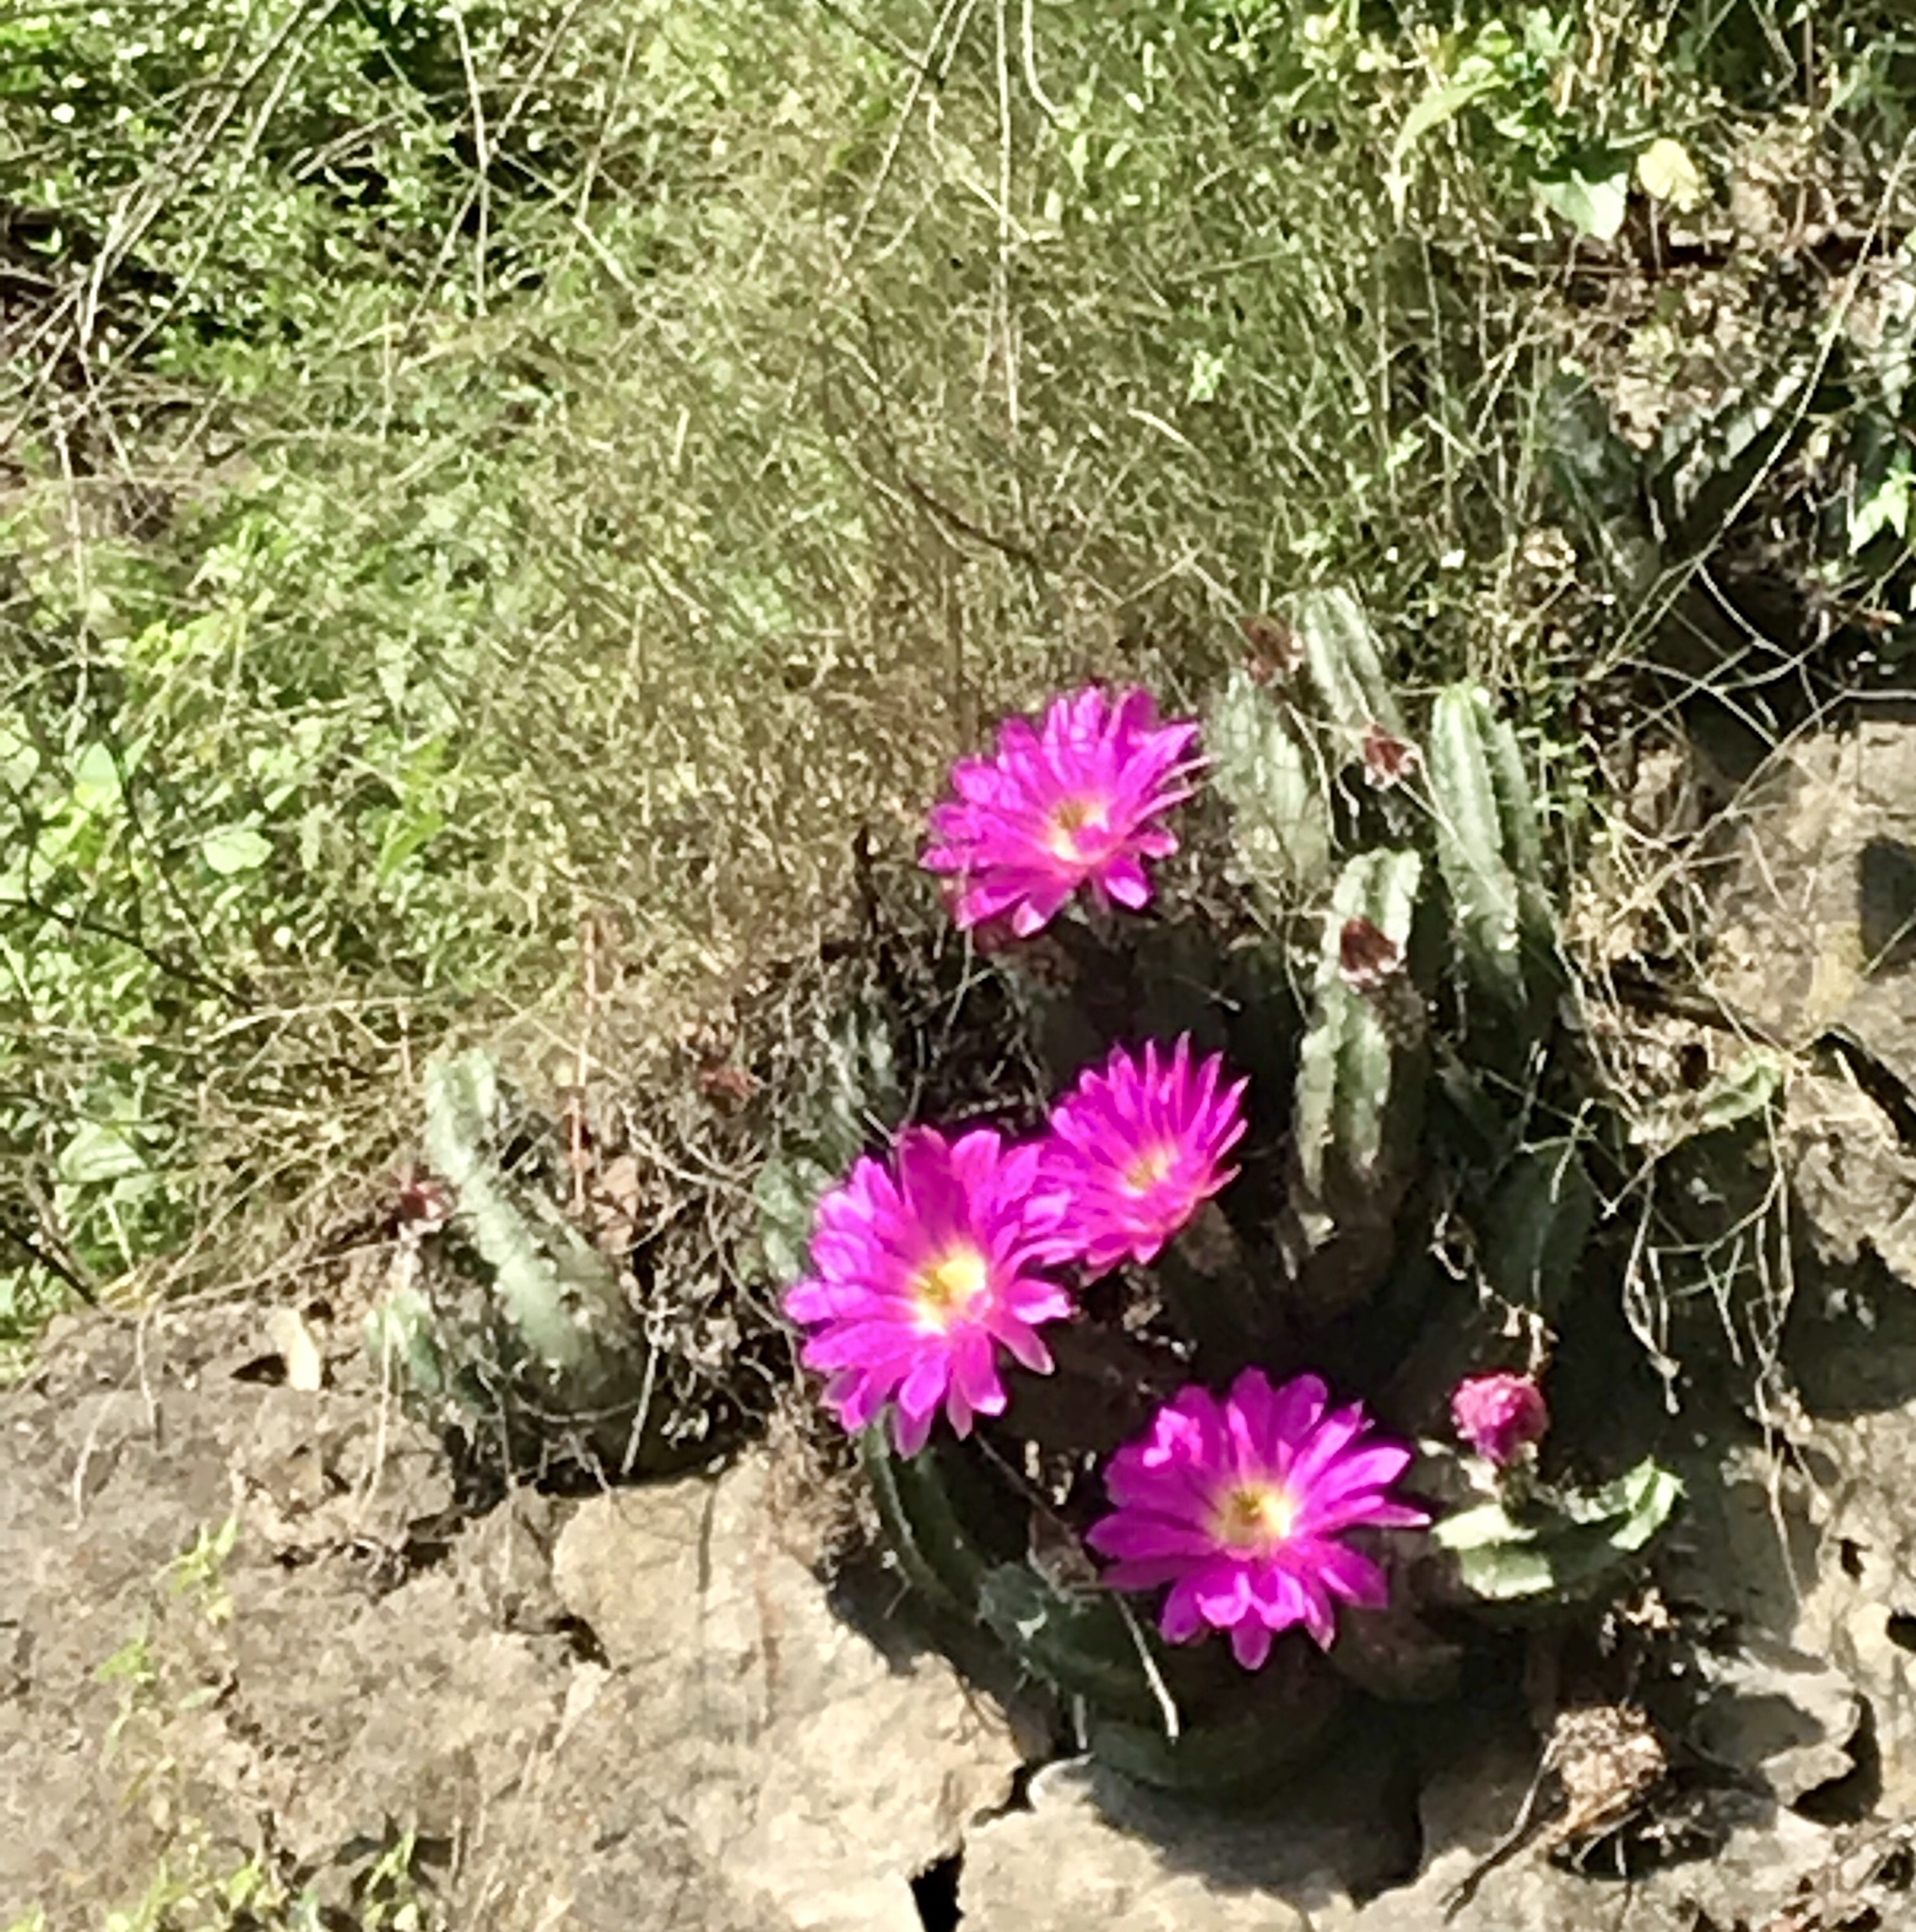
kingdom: Plantae
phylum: Tracheophyta
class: Magnoliopsida
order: Caryophyllales
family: Cactaceae
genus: Echinocereus
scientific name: Echinocereus viereckii
